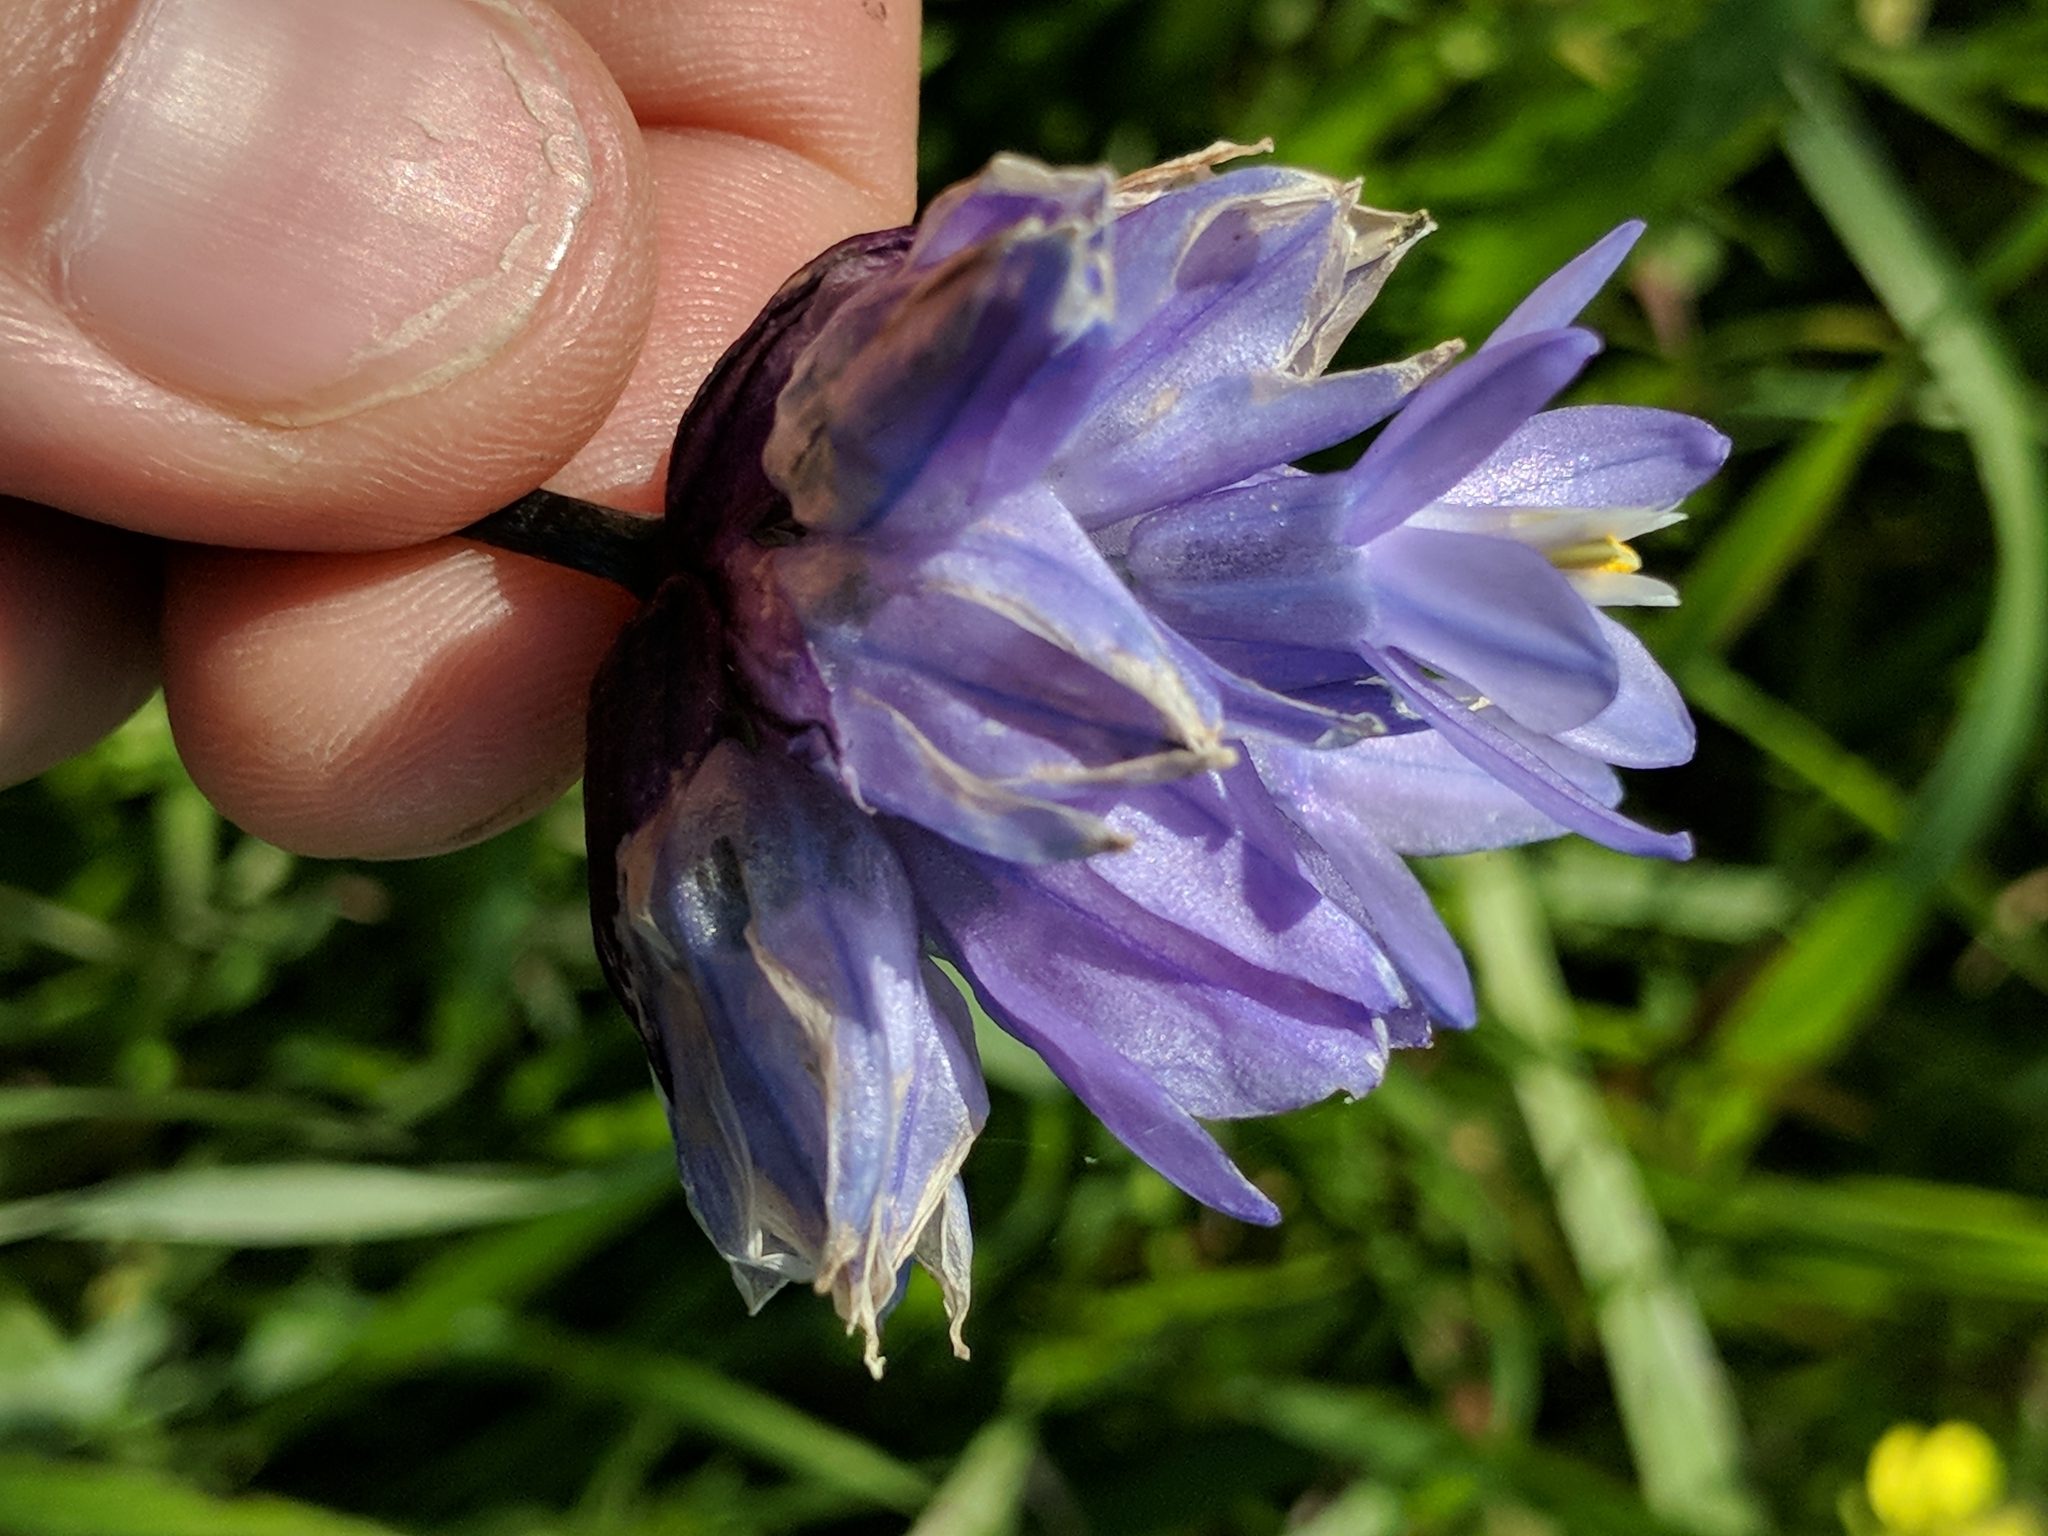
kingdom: Plantae
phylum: Tracheophyta
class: Liliopsida
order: Asparagales
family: Asparagaceae
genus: Dipterostemon
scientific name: Dipterostemon capitatus
